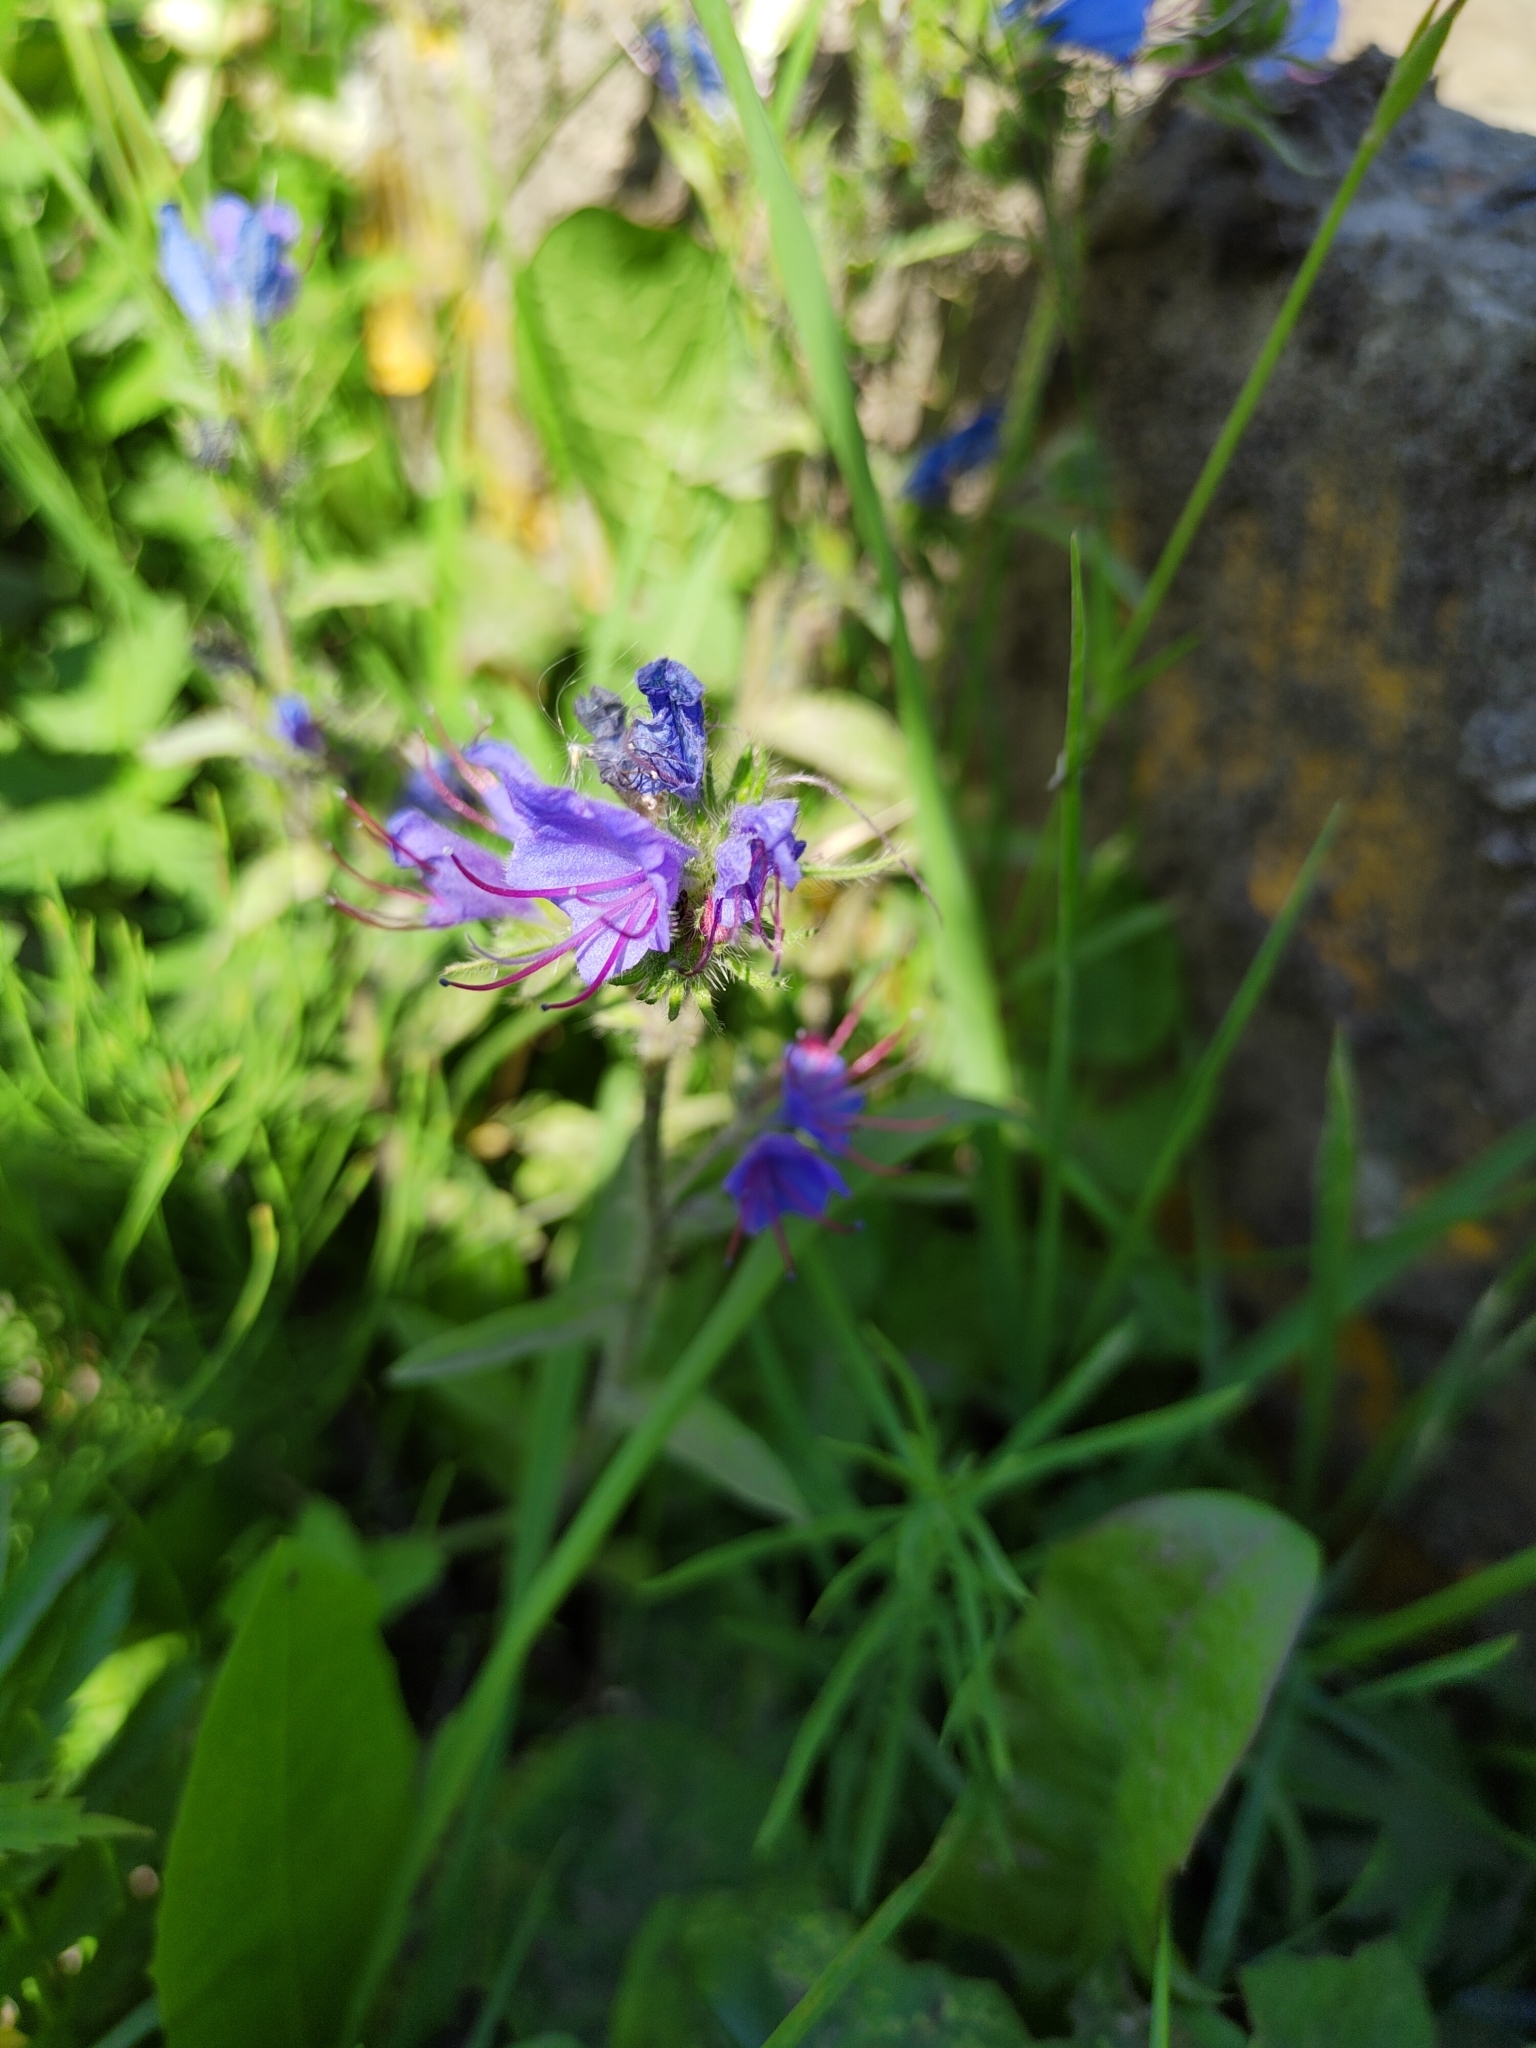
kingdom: Plantae
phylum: Tracheophyta
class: Magnoliopsida
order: Boraginales
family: Boraginaceae
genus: Echium
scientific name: Echium vulgare
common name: Common viper's bugloss
